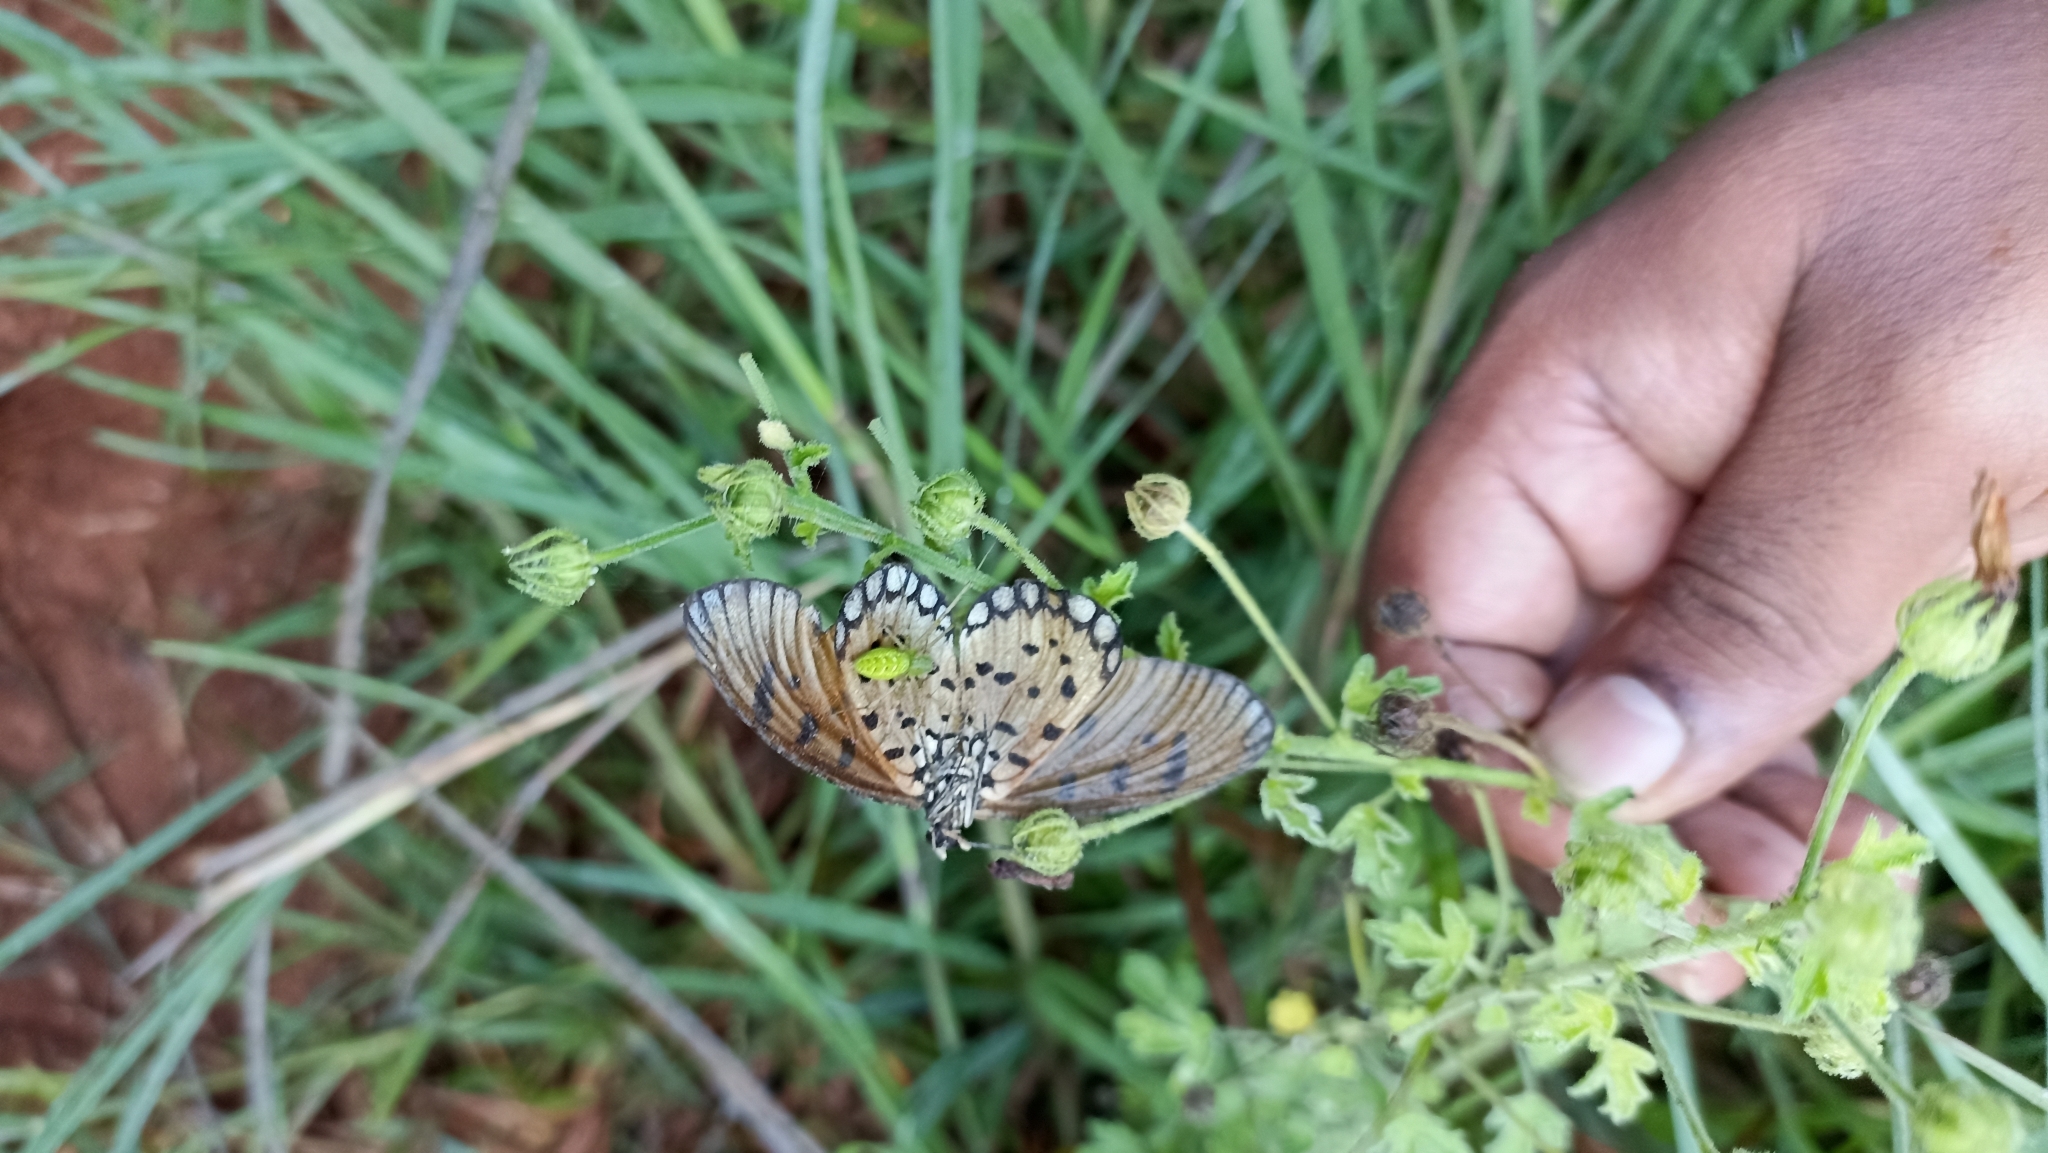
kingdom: Animalia
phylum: Arthropoda
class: Insecta
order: Lepidoptera
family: Nymphalidae
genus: Acraea
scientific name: Acraea terpsicore
